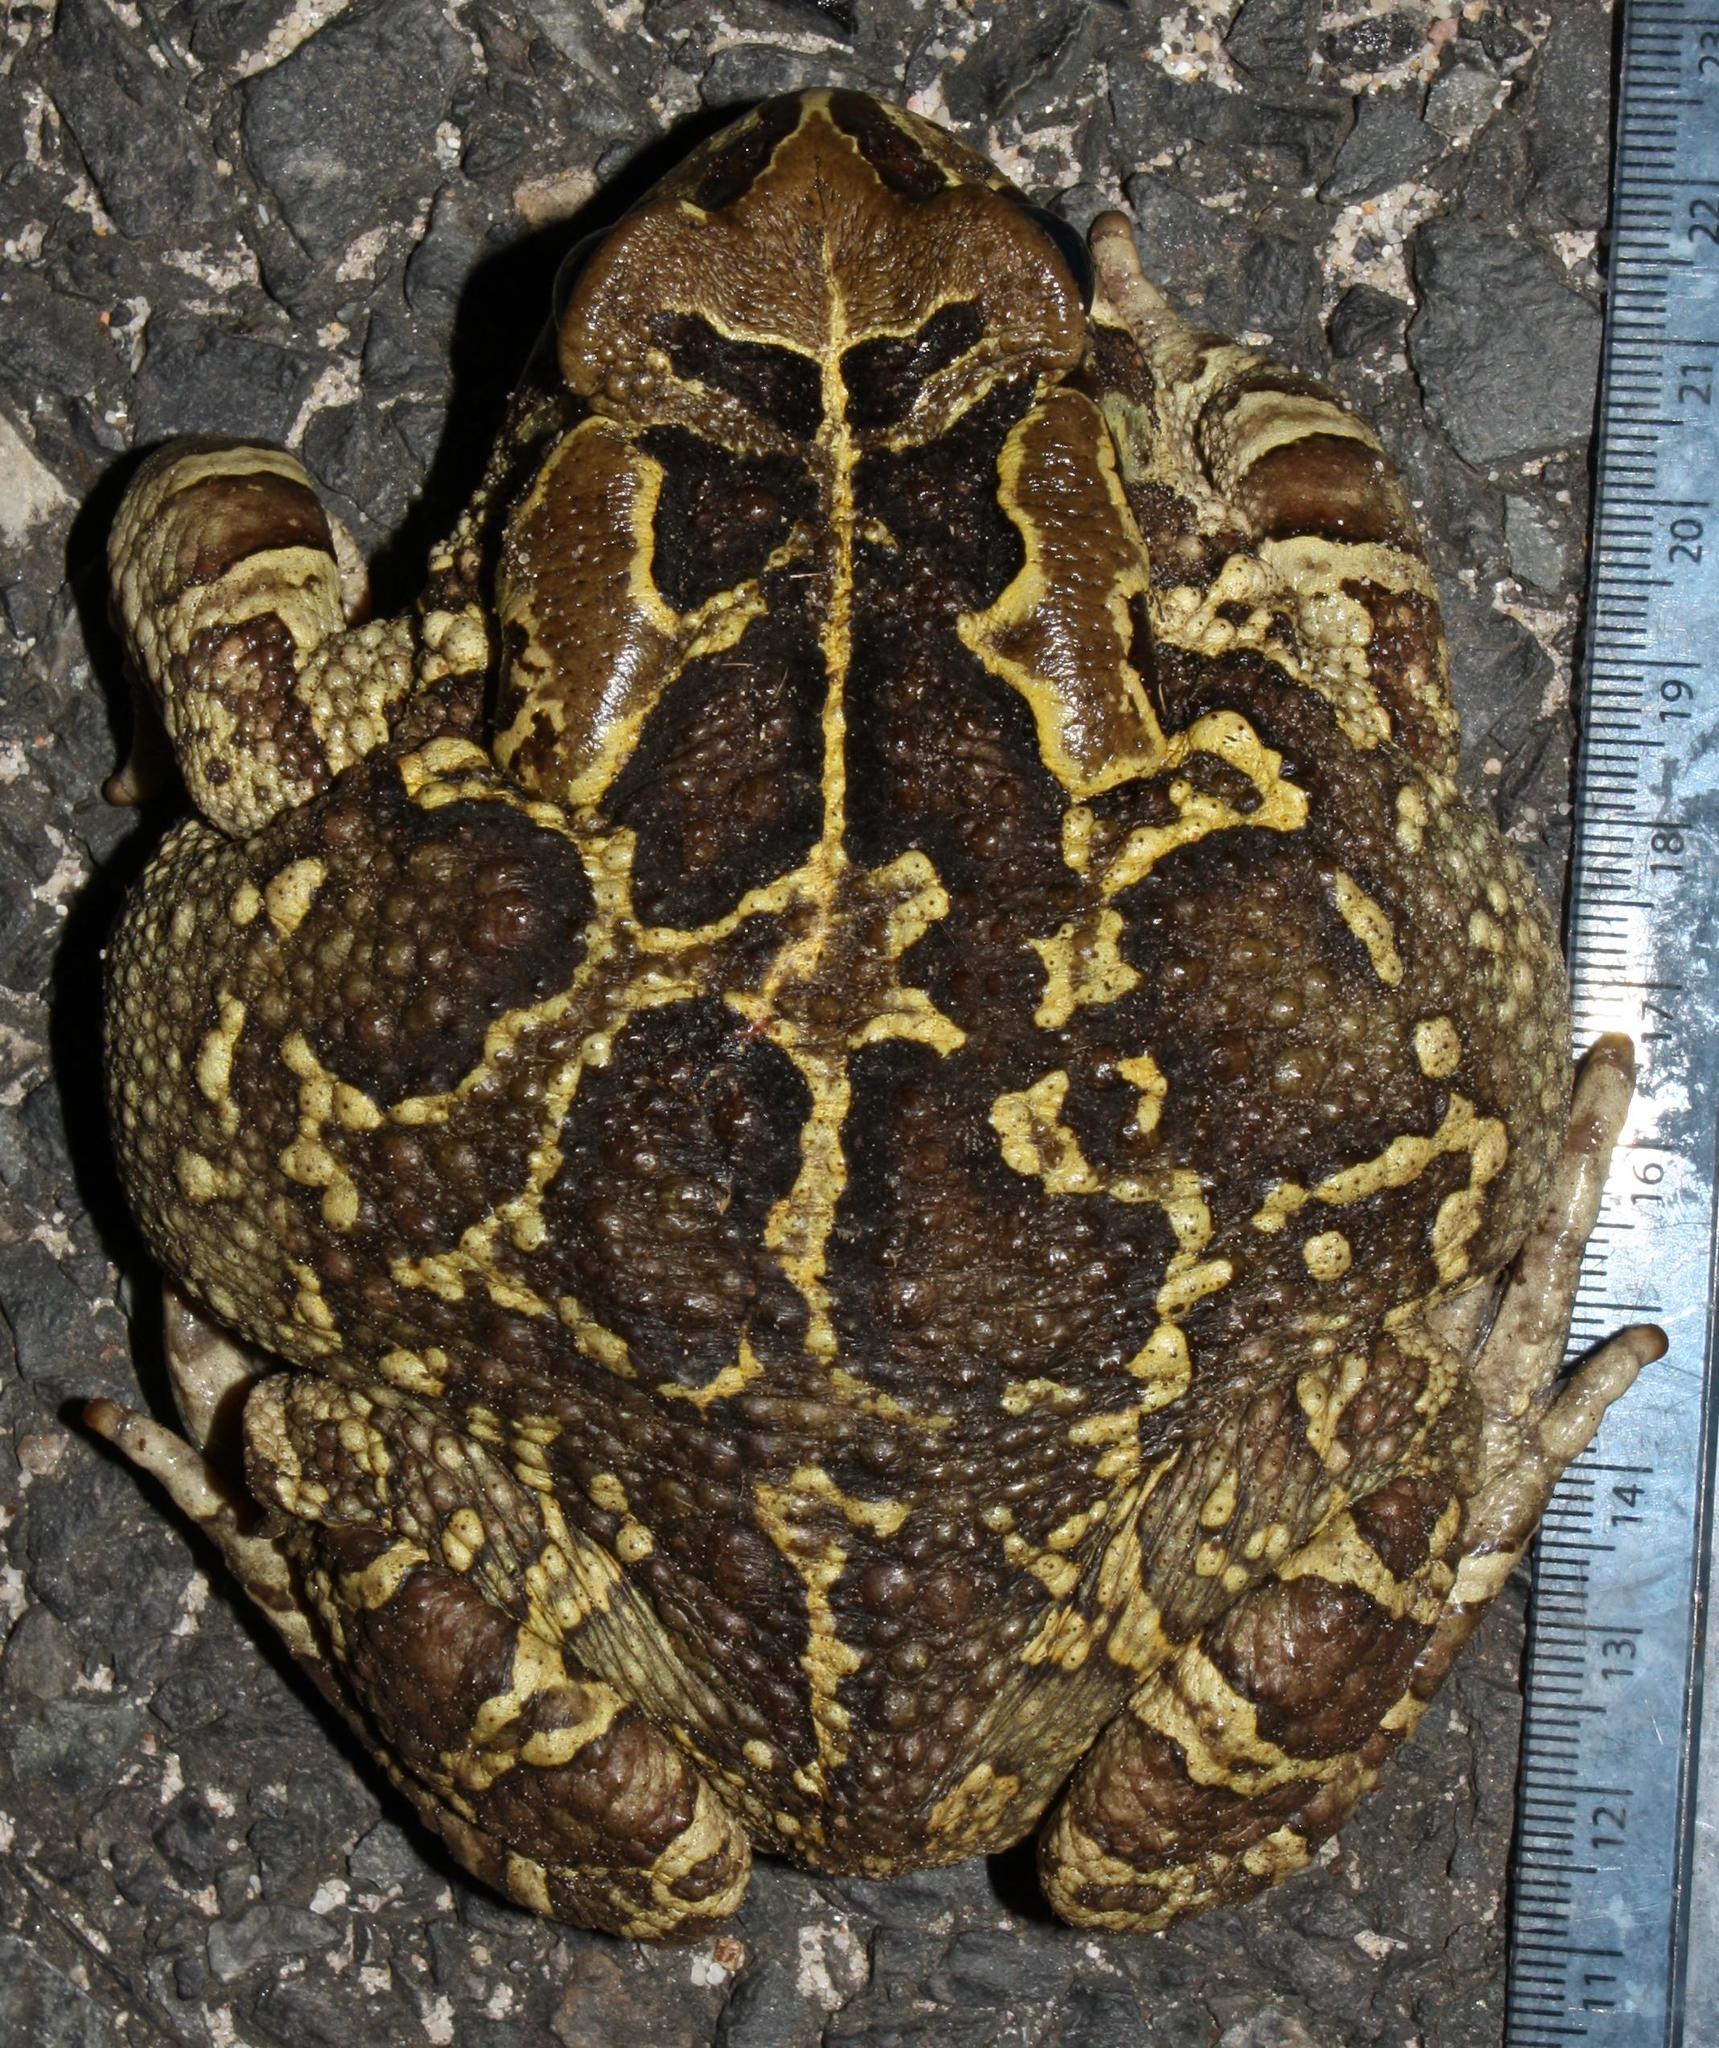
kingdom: Animalia
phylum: Chordata
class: Amphibia
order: Anura
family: Bufonidae
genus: Sclerophrys
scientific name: Sclerophrys pantherina
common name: Panther toad
